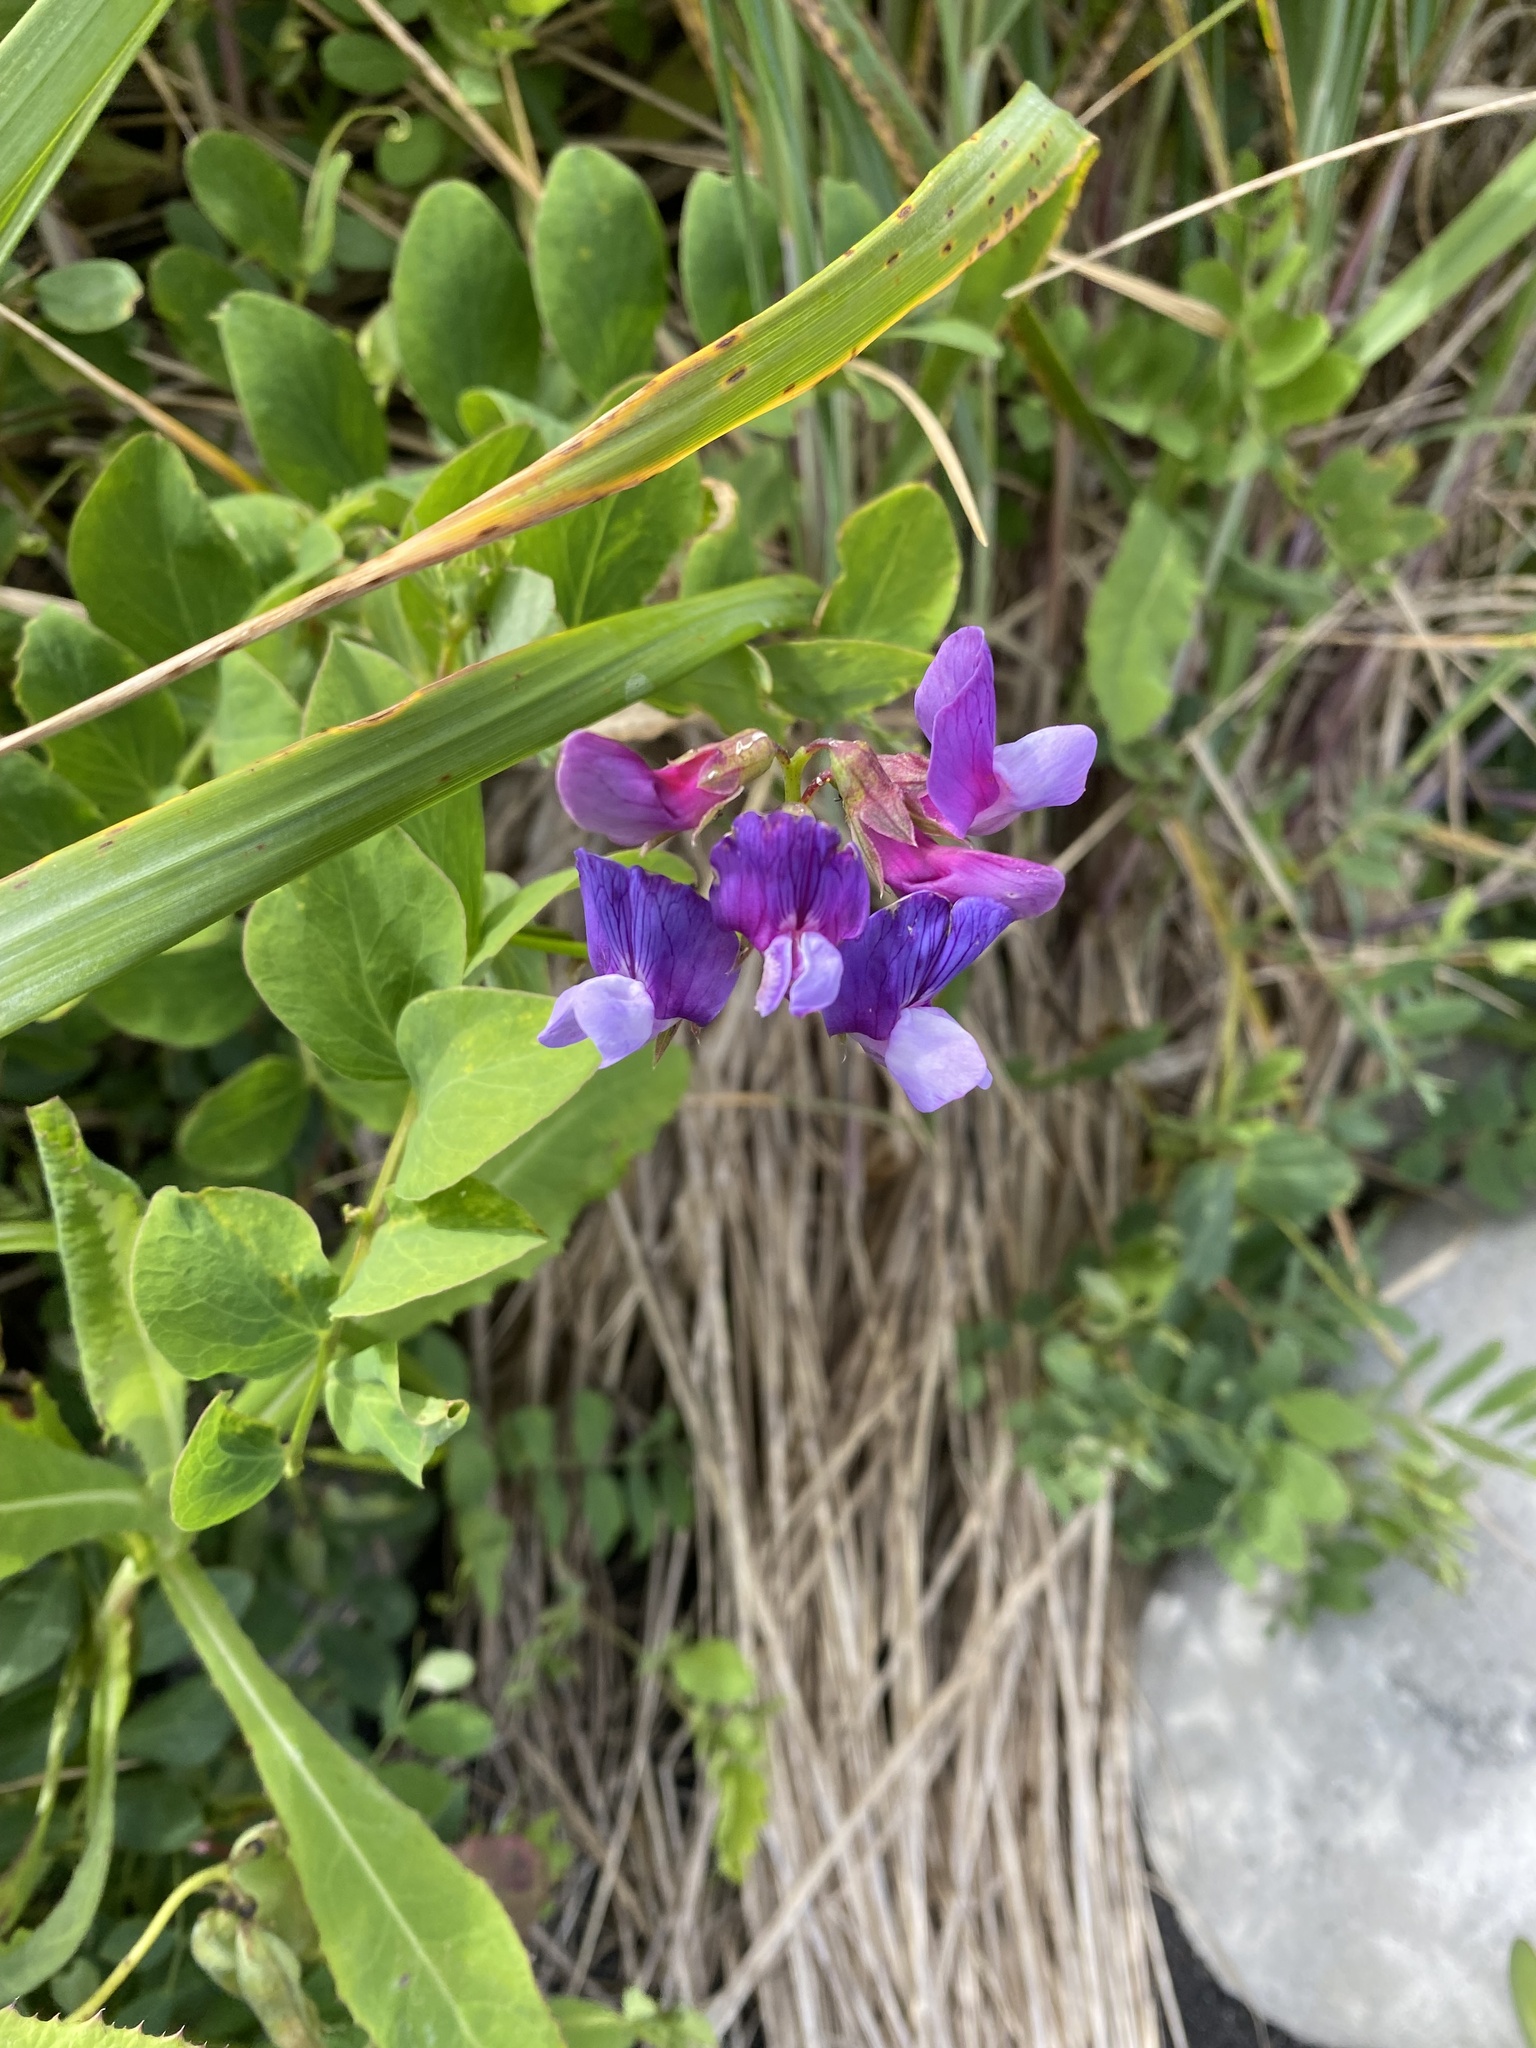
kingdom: Plantae
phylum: Tracheophyta
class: Magnoliopsida
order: Fabales
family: Fabaceae
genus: Lathyrus
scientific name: Lathyrus japonicus
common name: Sea pea
